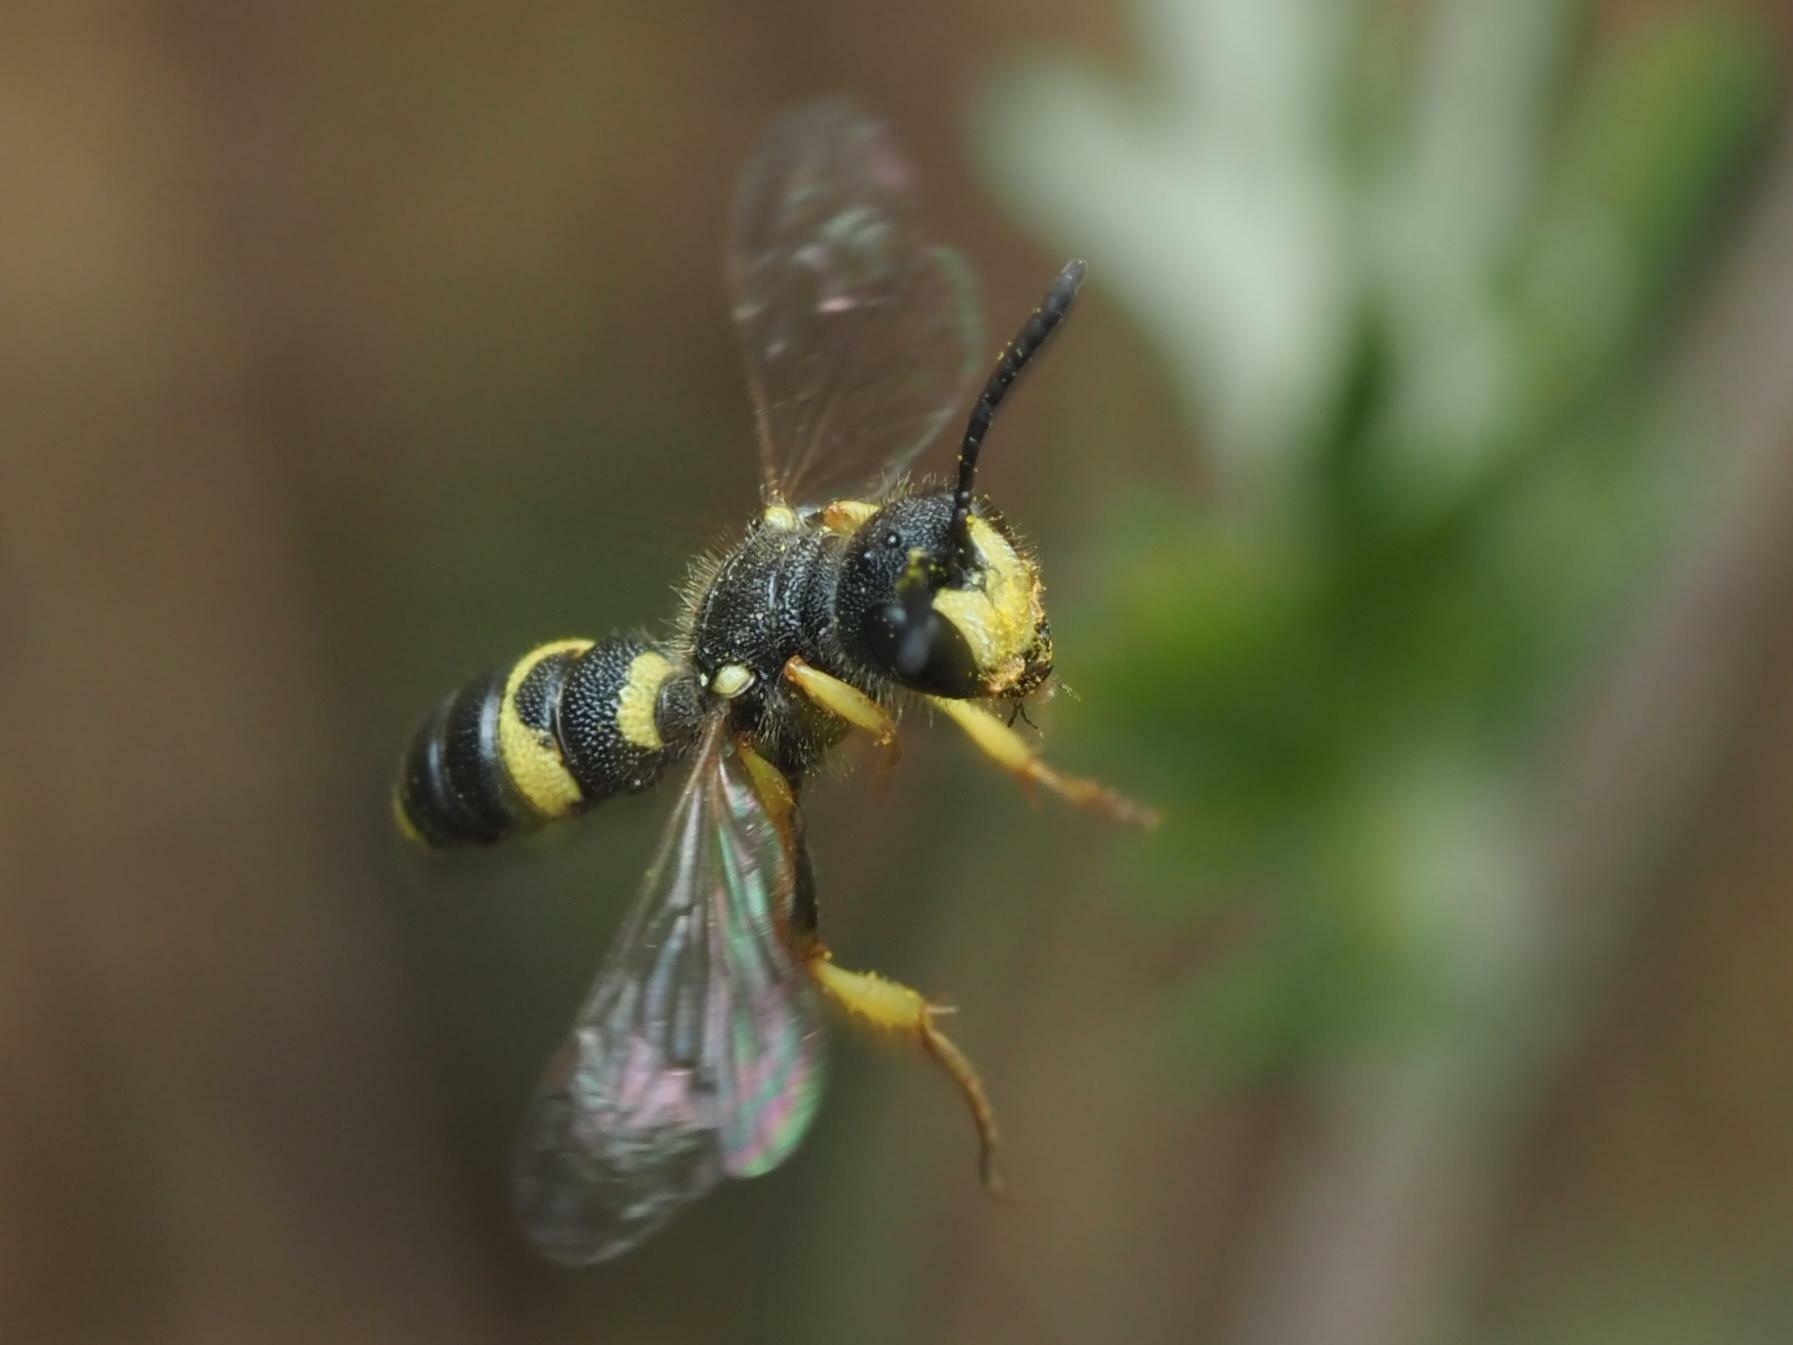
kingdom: Animalia
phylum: Arthropoda
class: Insecta
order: Hymenoptera
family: Crabronidae
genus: Cerceris
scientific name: Cerceris rybyensis
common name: Ornate tailed digger wasp
